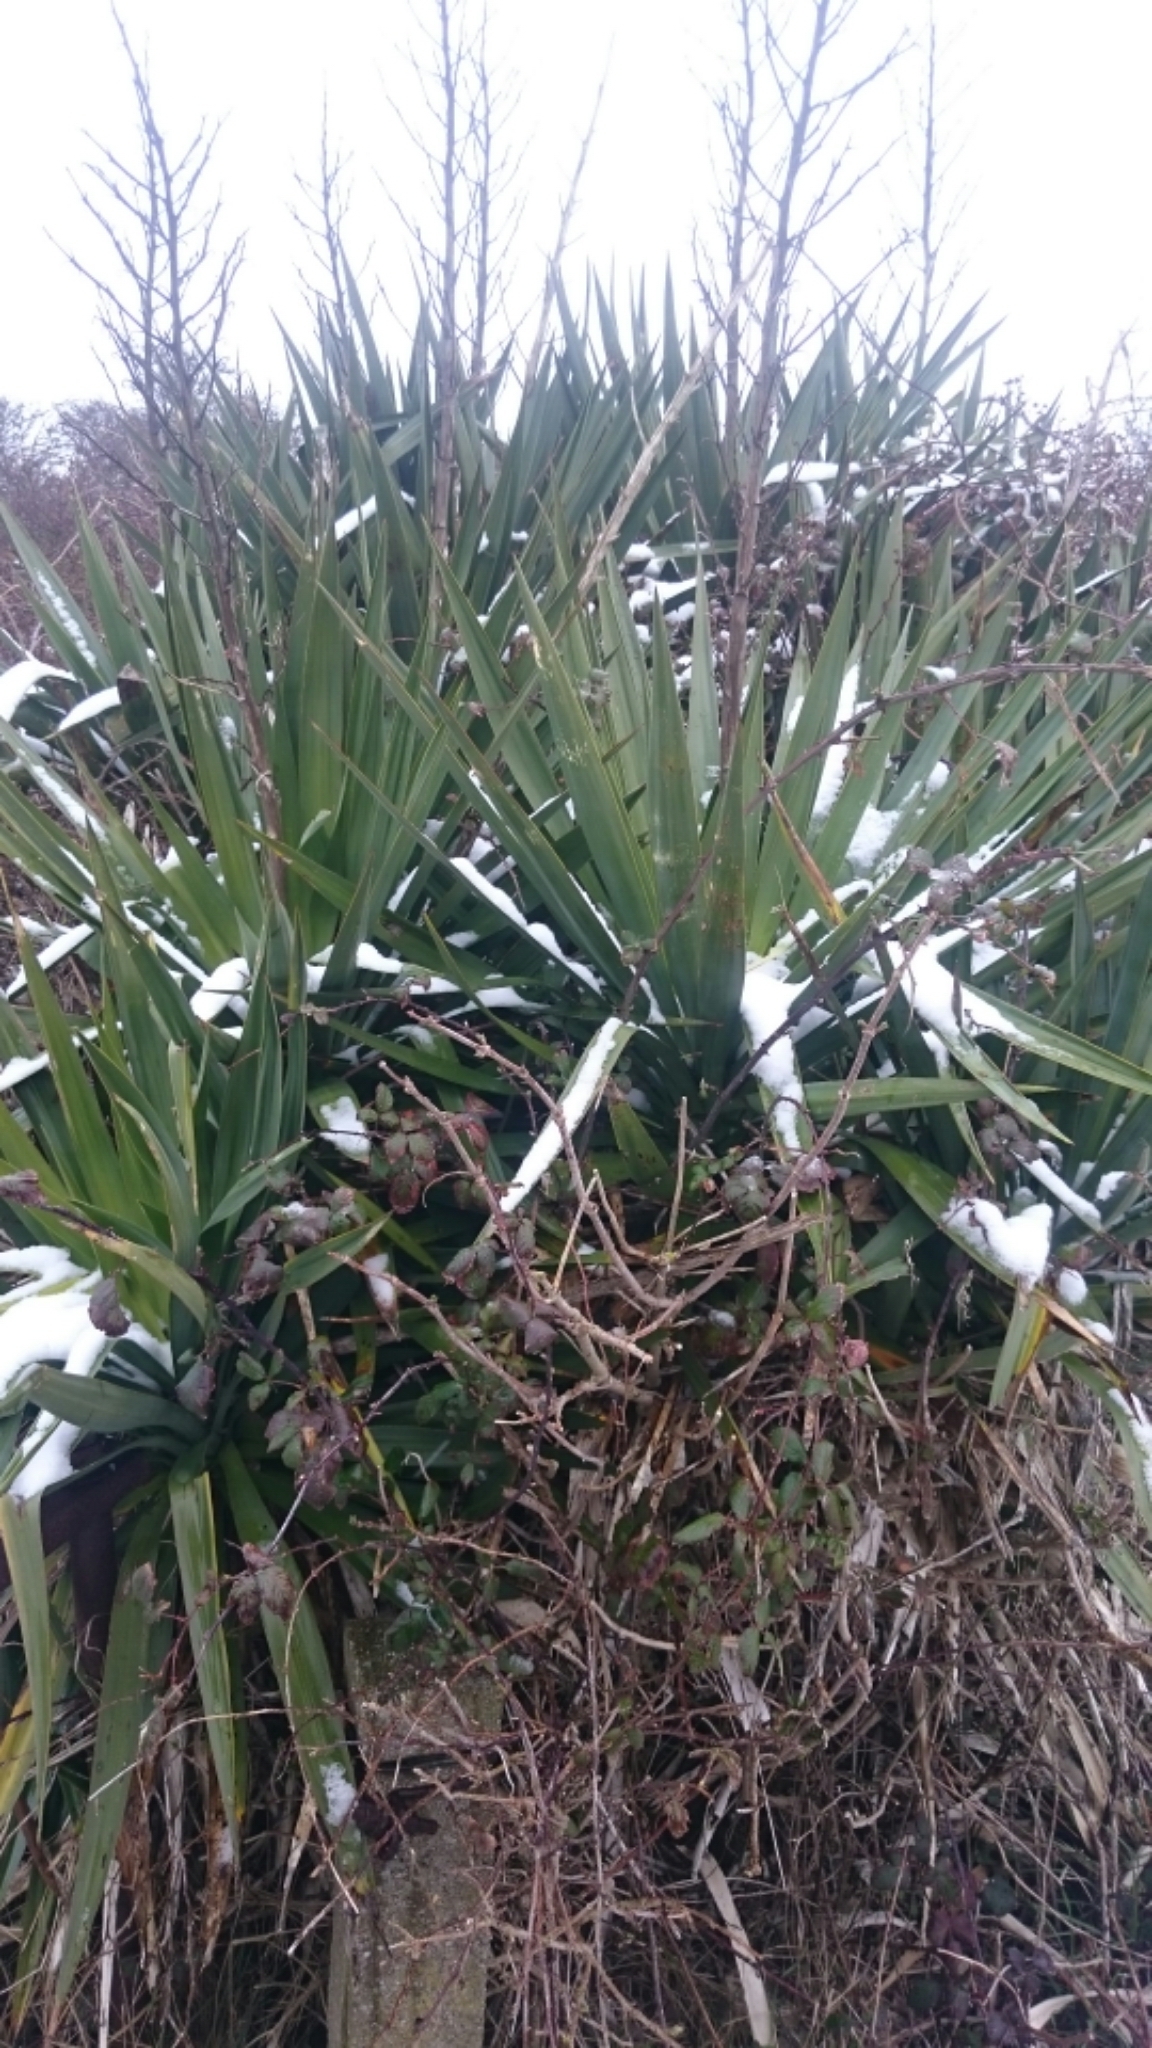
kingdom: Plantae
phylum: Tracheophyta
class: Liliopsida
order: Asparagales
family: Asparagaceae
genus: Yucca
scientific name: Yucca gloriosa
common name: Spanish-dagger
